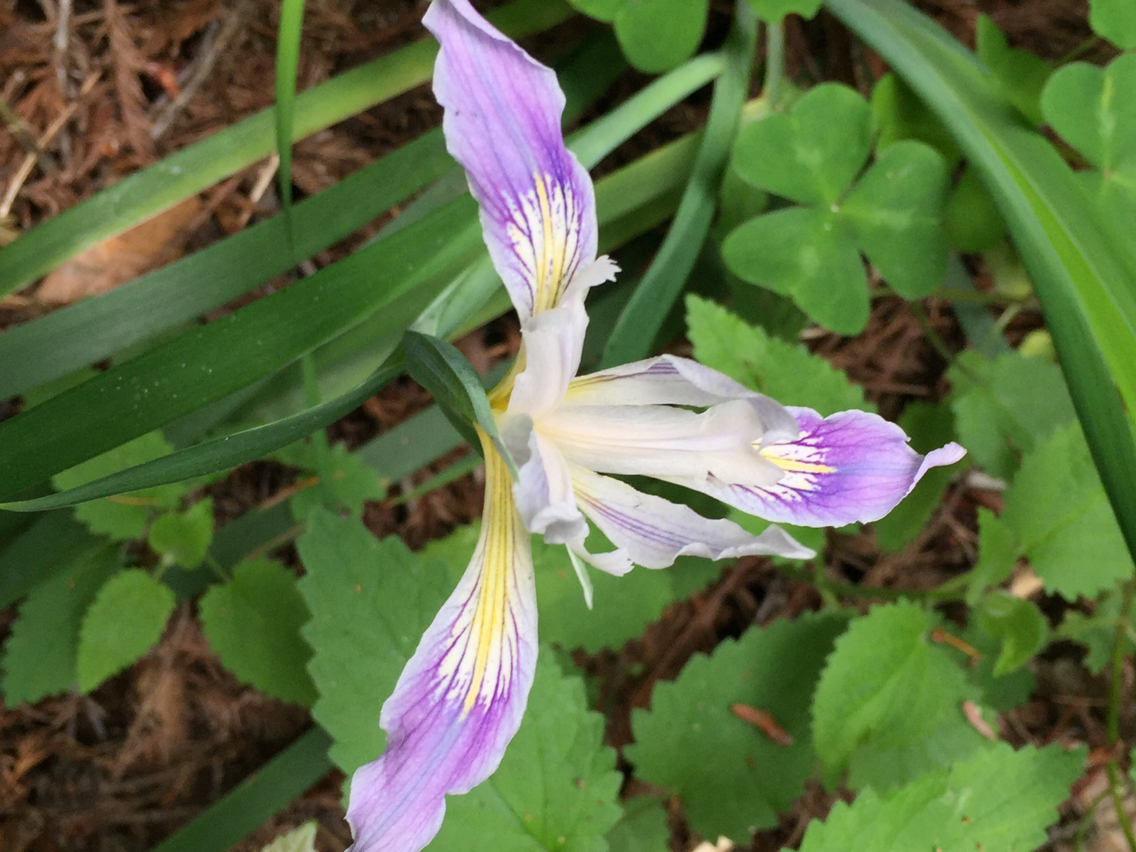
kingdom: Plantae
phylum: Tracheophyta
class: Liliopsida
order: Asparagales
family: Iridaceae
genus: Iris
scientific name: Iris douglasiana
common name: Marin iris
